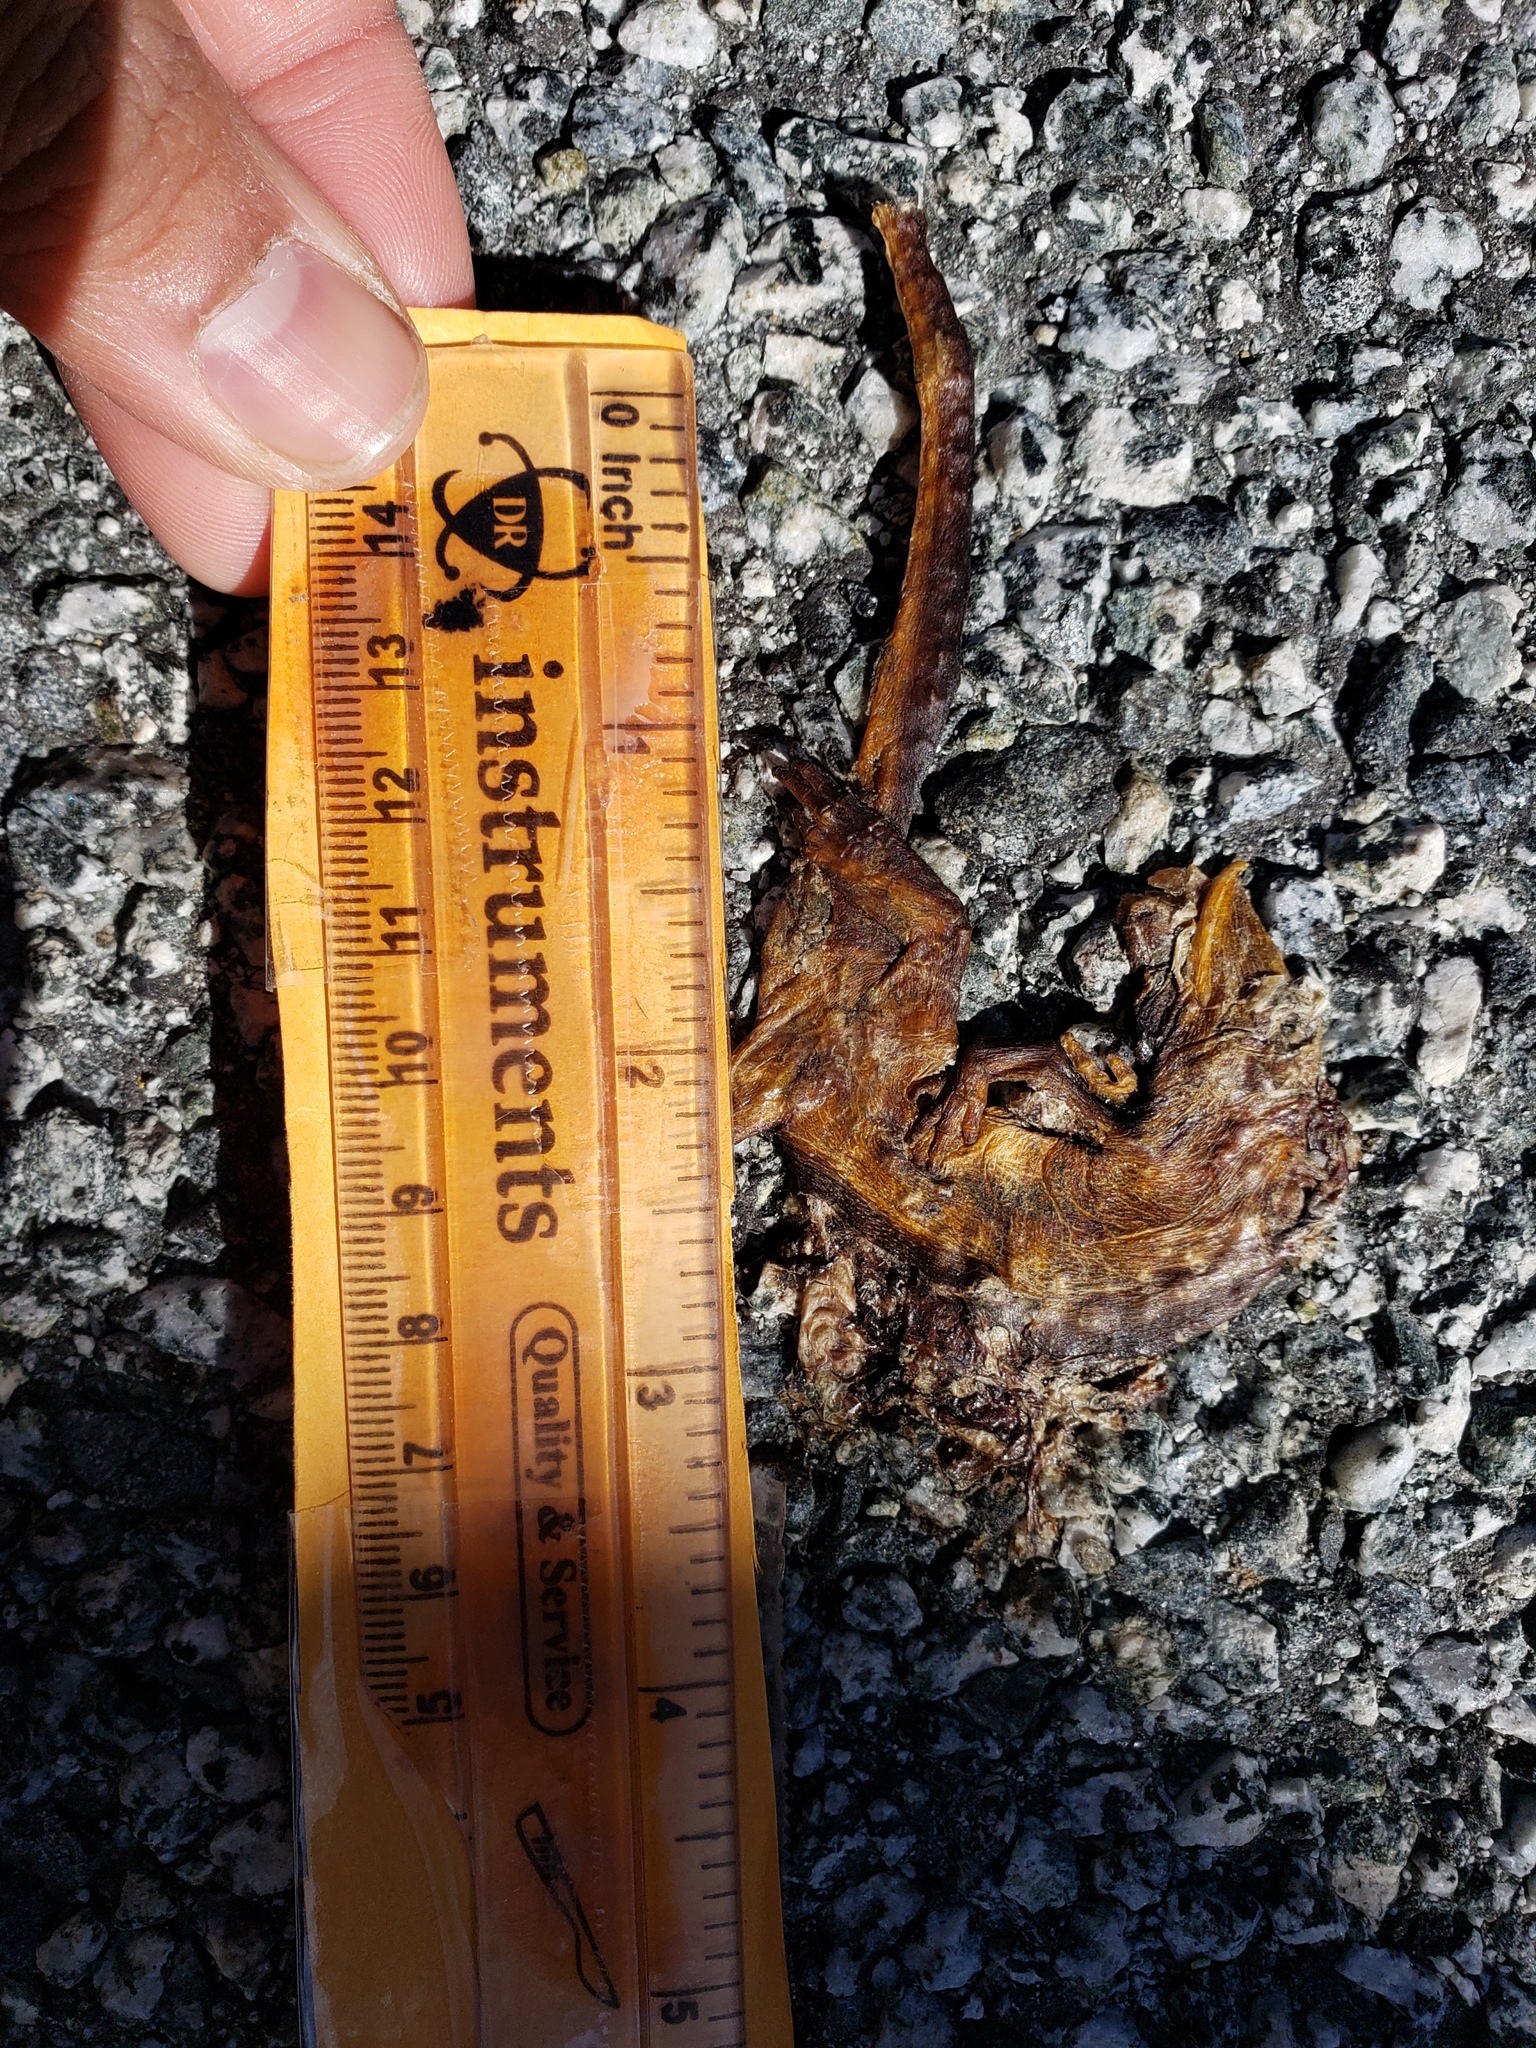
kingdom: Animalia
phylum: Chordata
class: Amphibia
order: Caudata
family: Salamandridae
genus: Taricha
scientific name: Taricha
